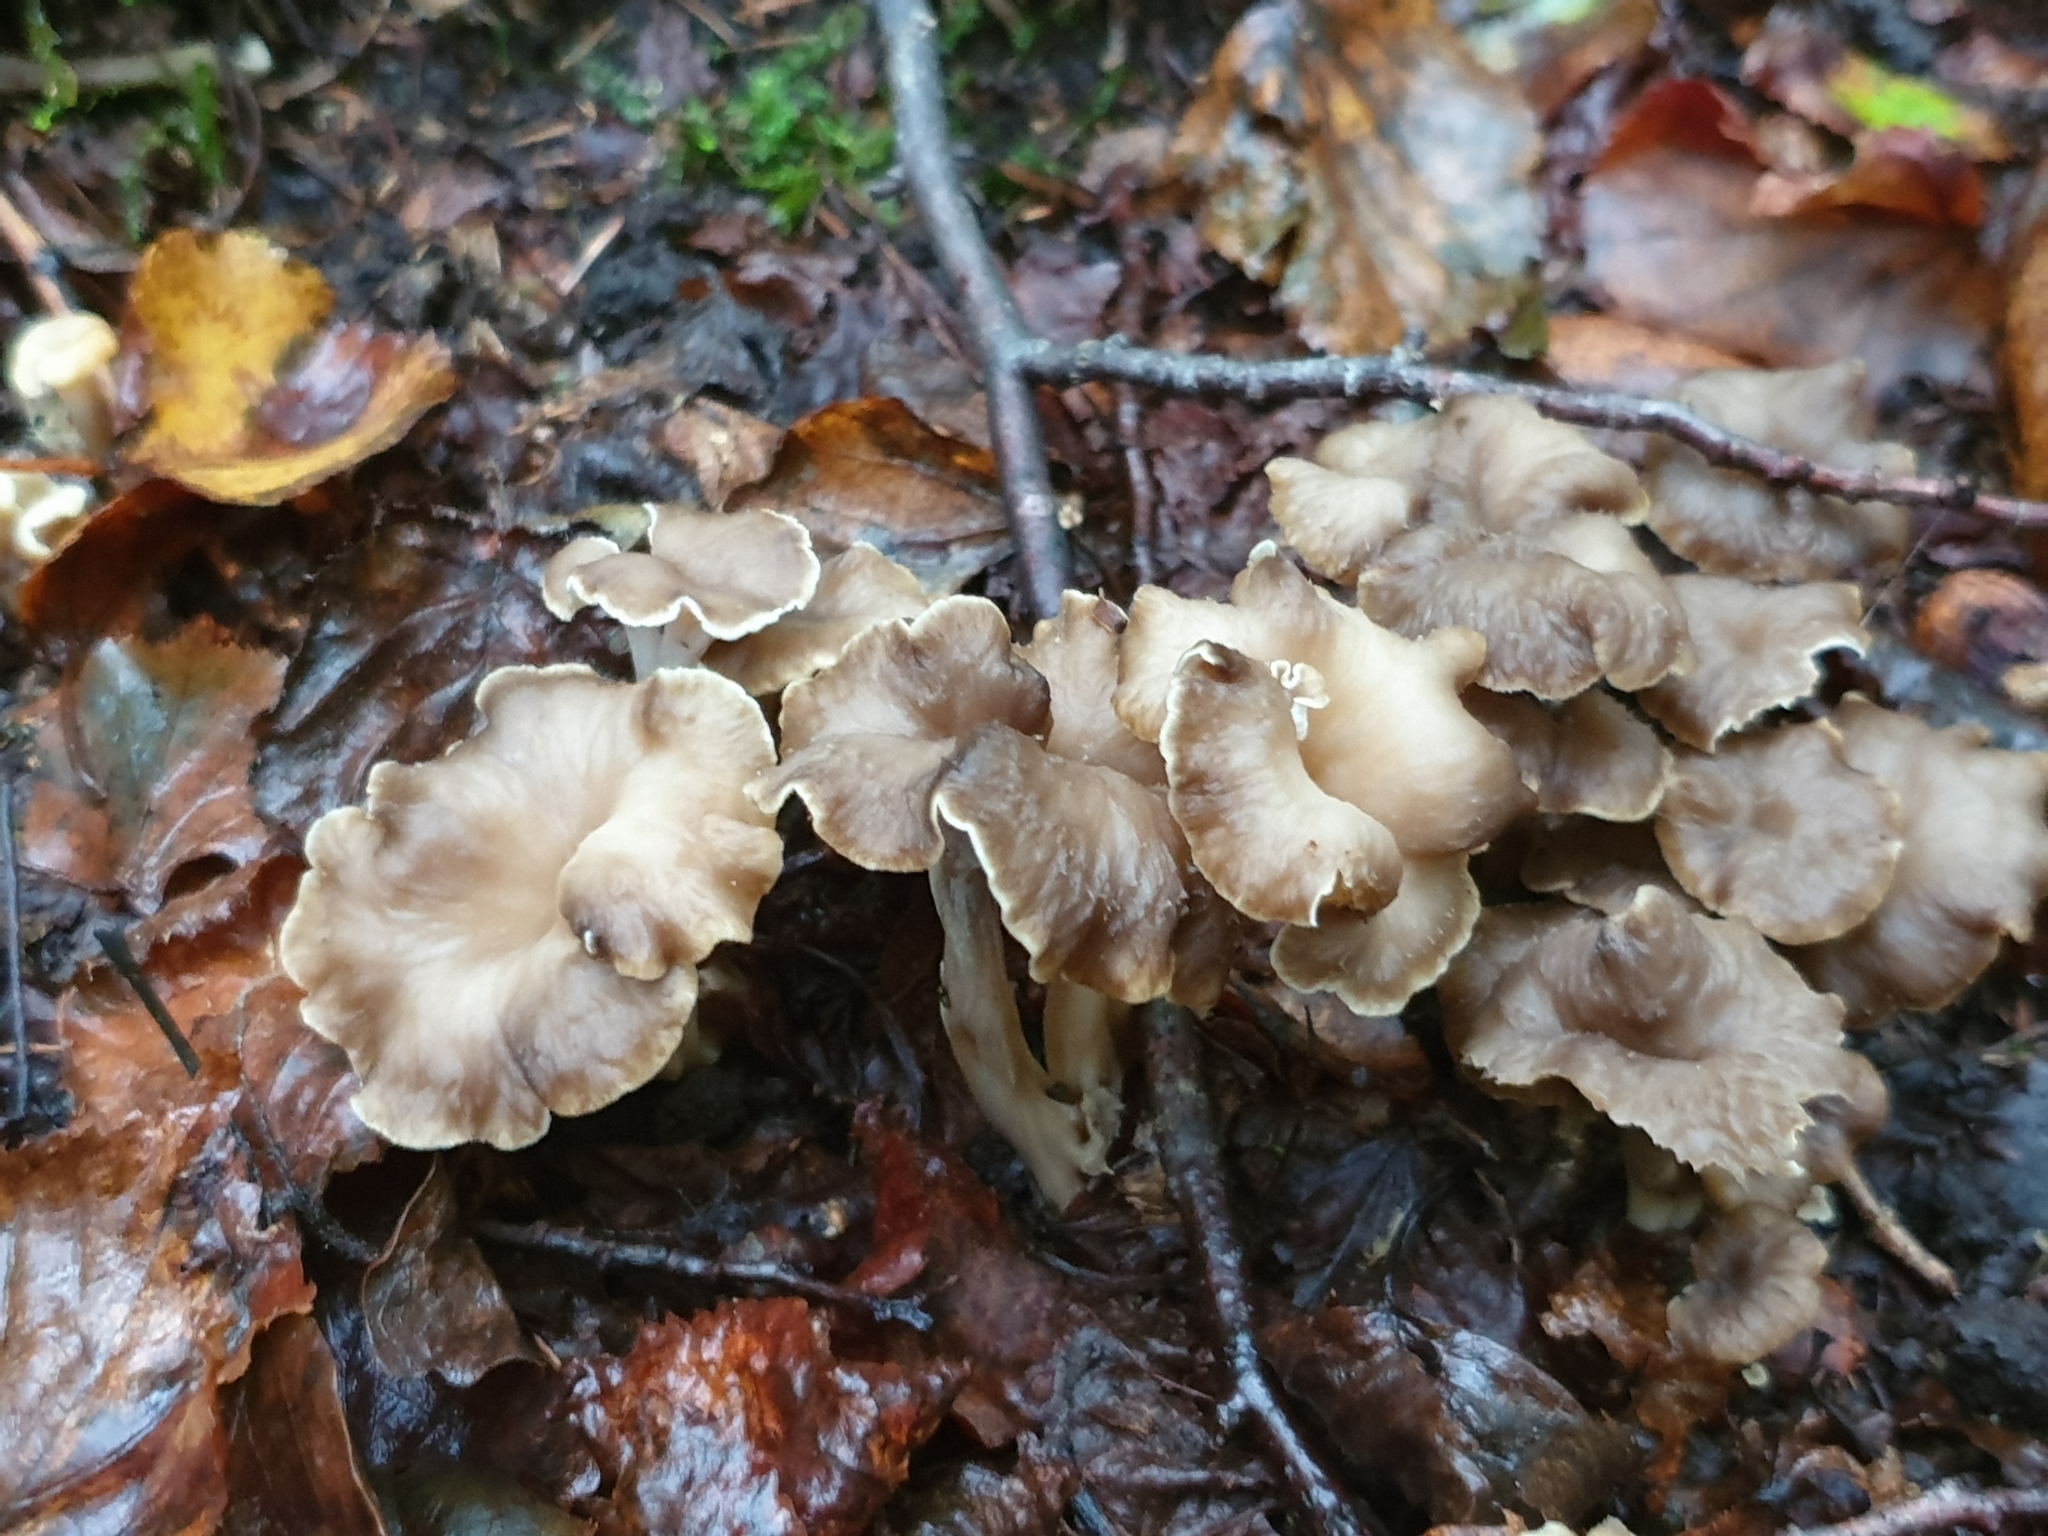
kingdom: Fungi
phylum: Basidiomycota
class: Agaricomycetes
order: Cantharellales
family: Hydnaceae
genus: Craterellus
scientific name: Craterellus undulatus
